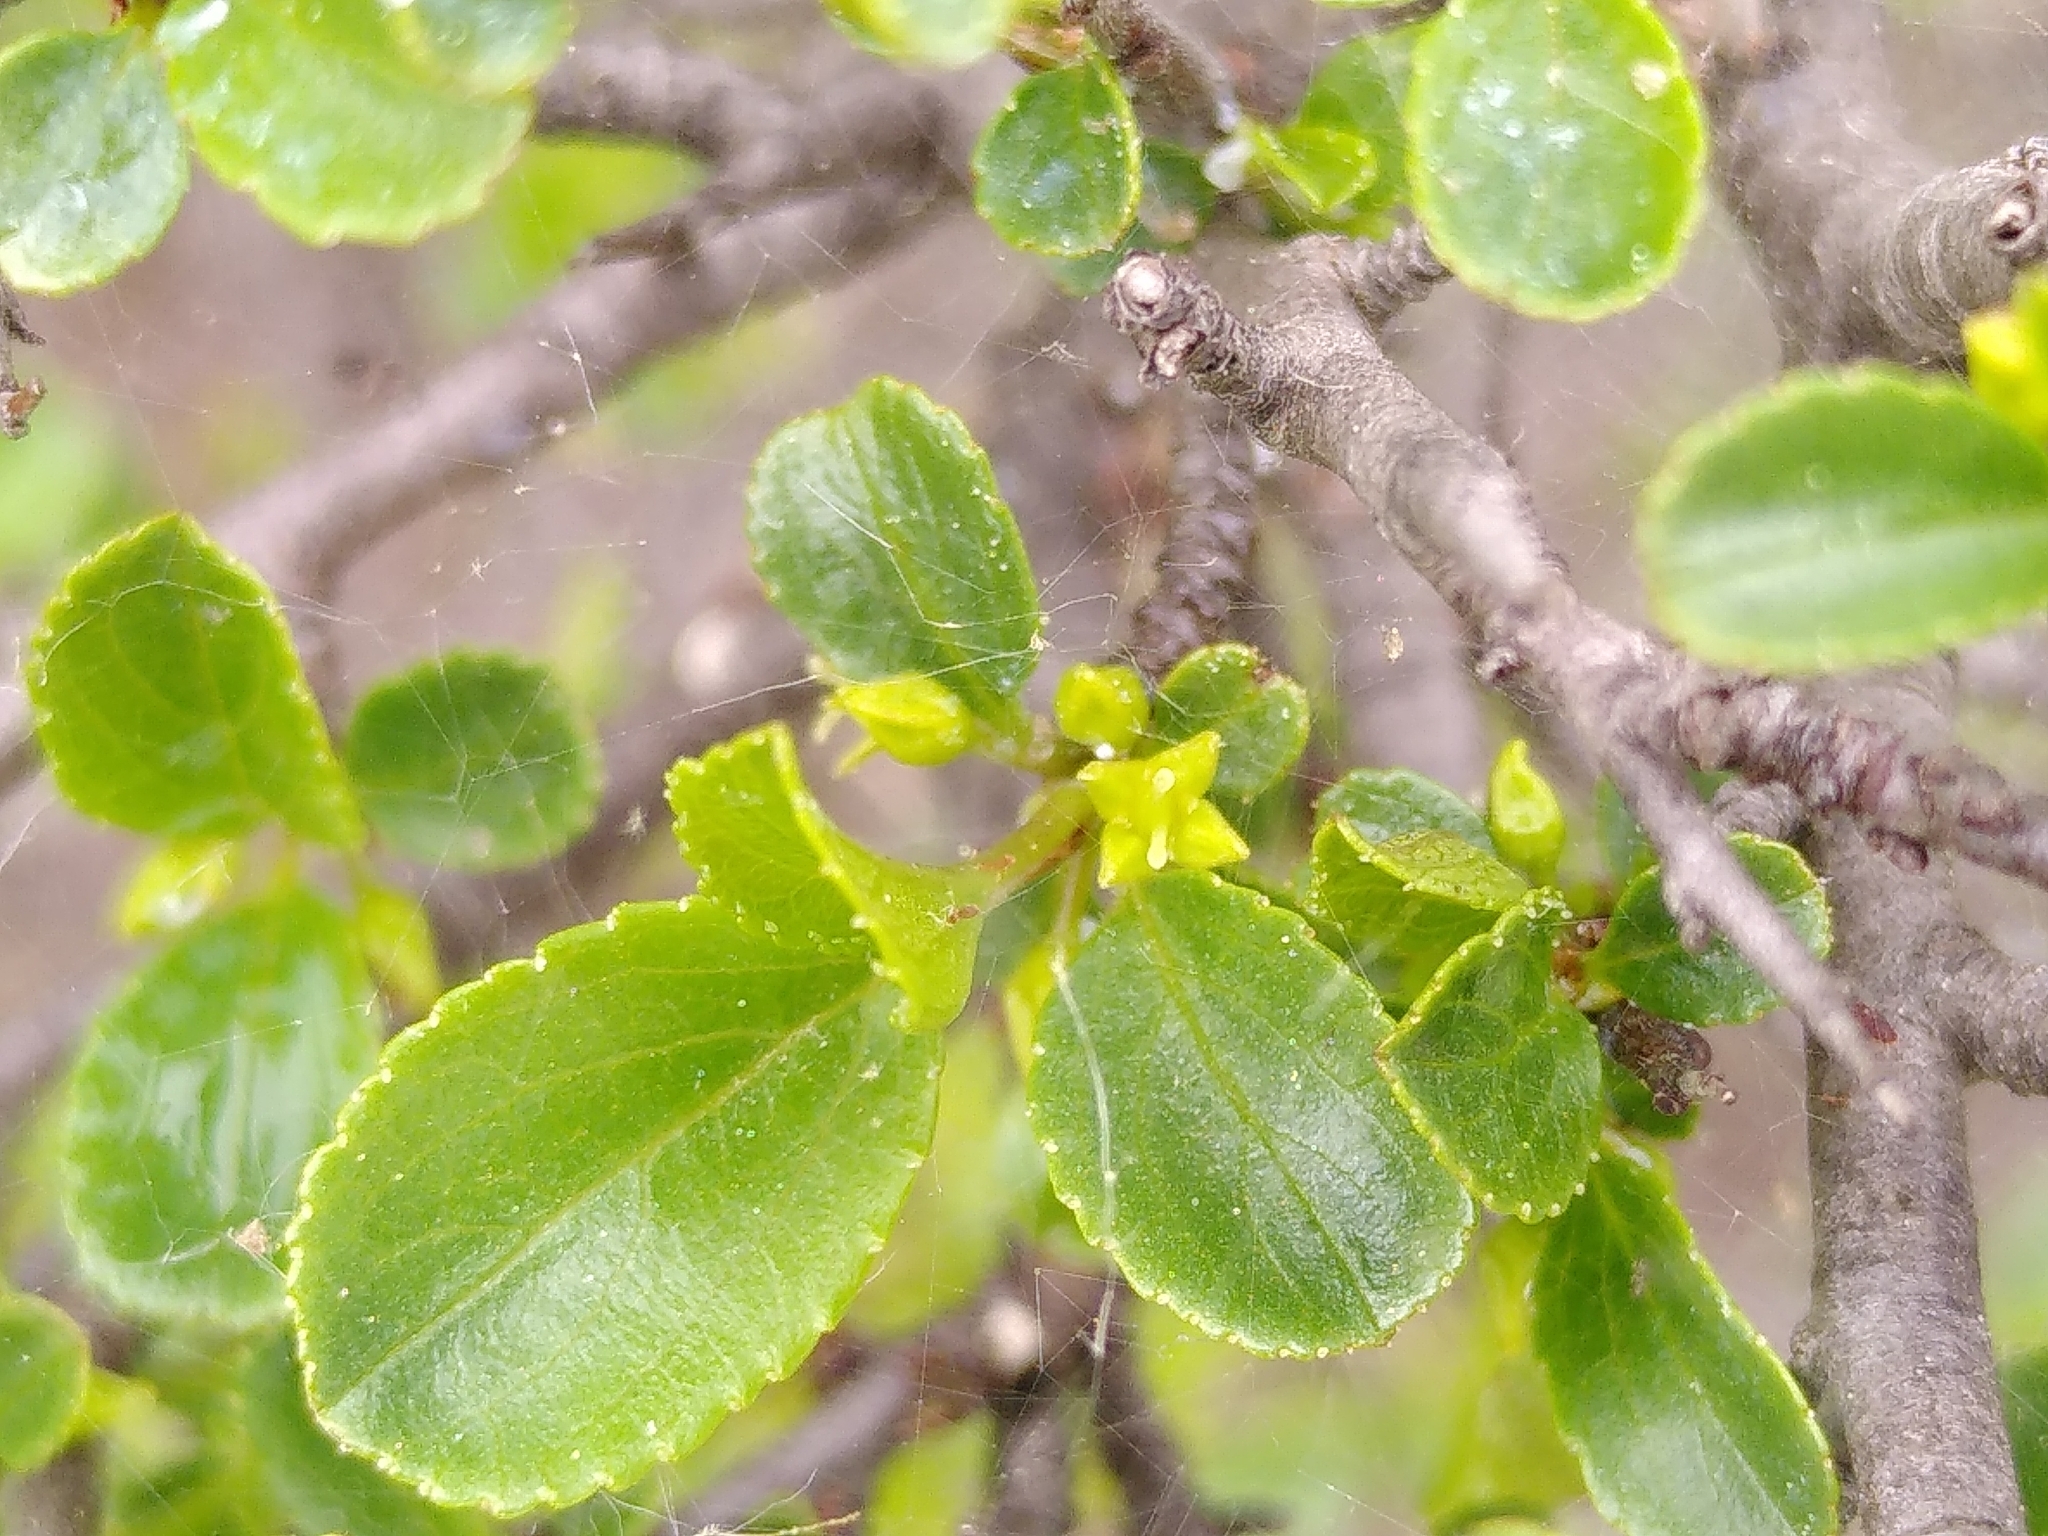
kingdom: Plantae
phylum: Tracheophyta
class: Magnoliopsida
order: Rosales
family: Rhamnaceae
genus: Rhamnus
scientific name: Rhamnus saxatilis
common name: Rock buckthorn
